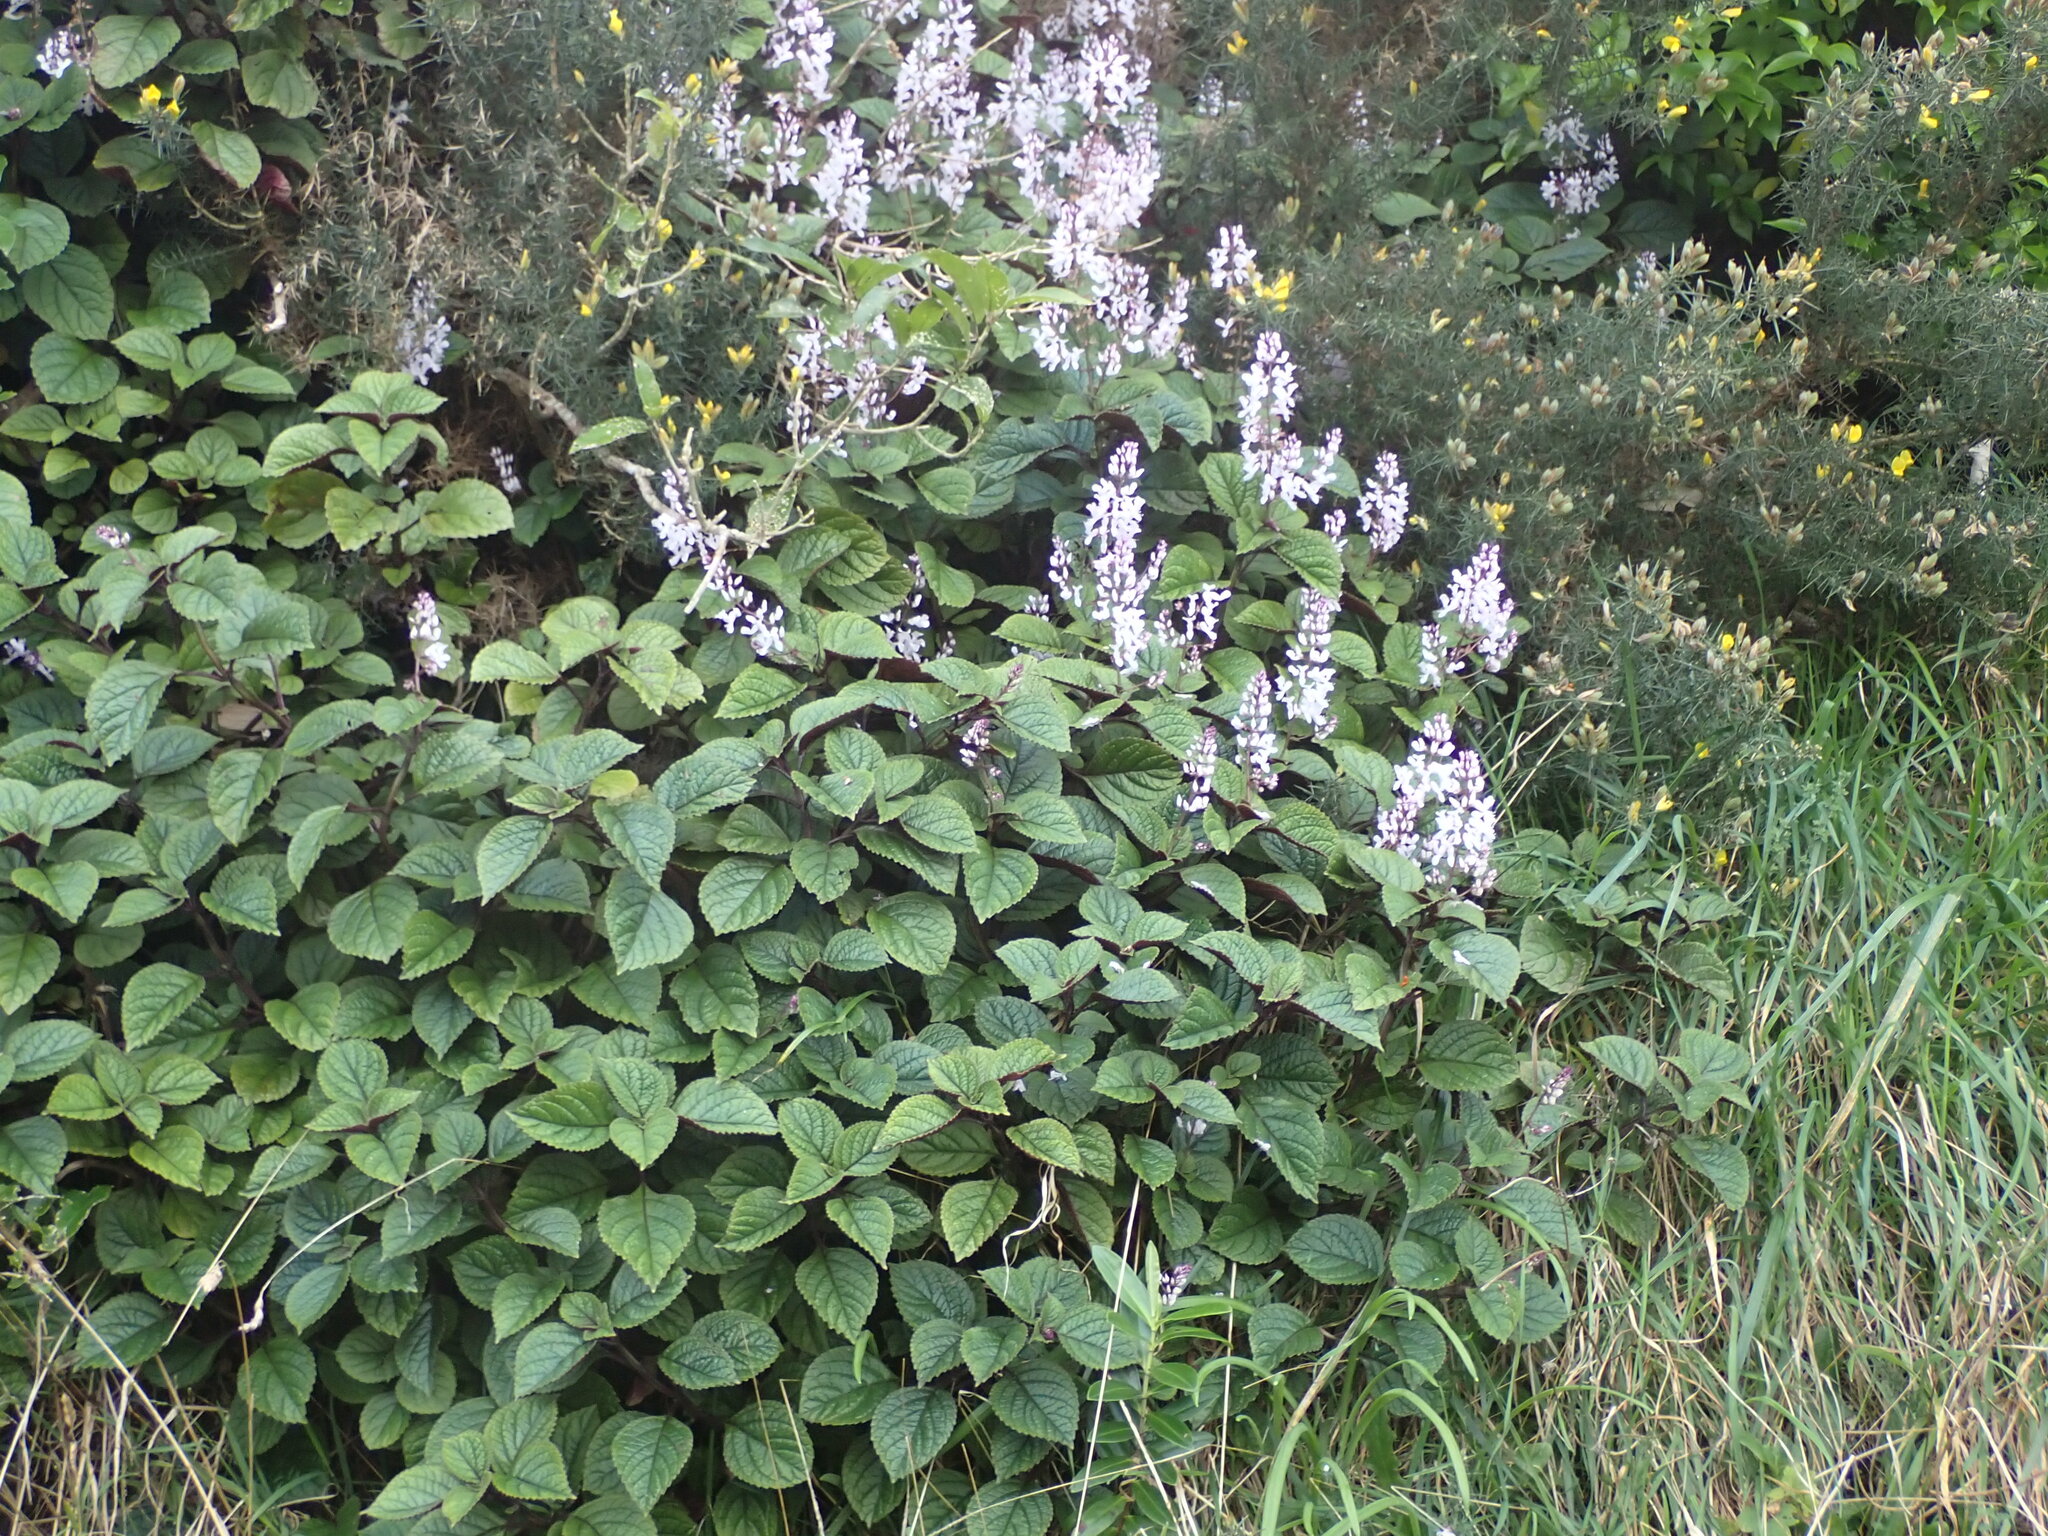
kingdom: Plantae
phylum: Tracheophyta
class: Magnoliopsida
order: Lamiales
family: Lamiaceae
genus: Plectranthus
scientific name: Plectranthus ciliatus
